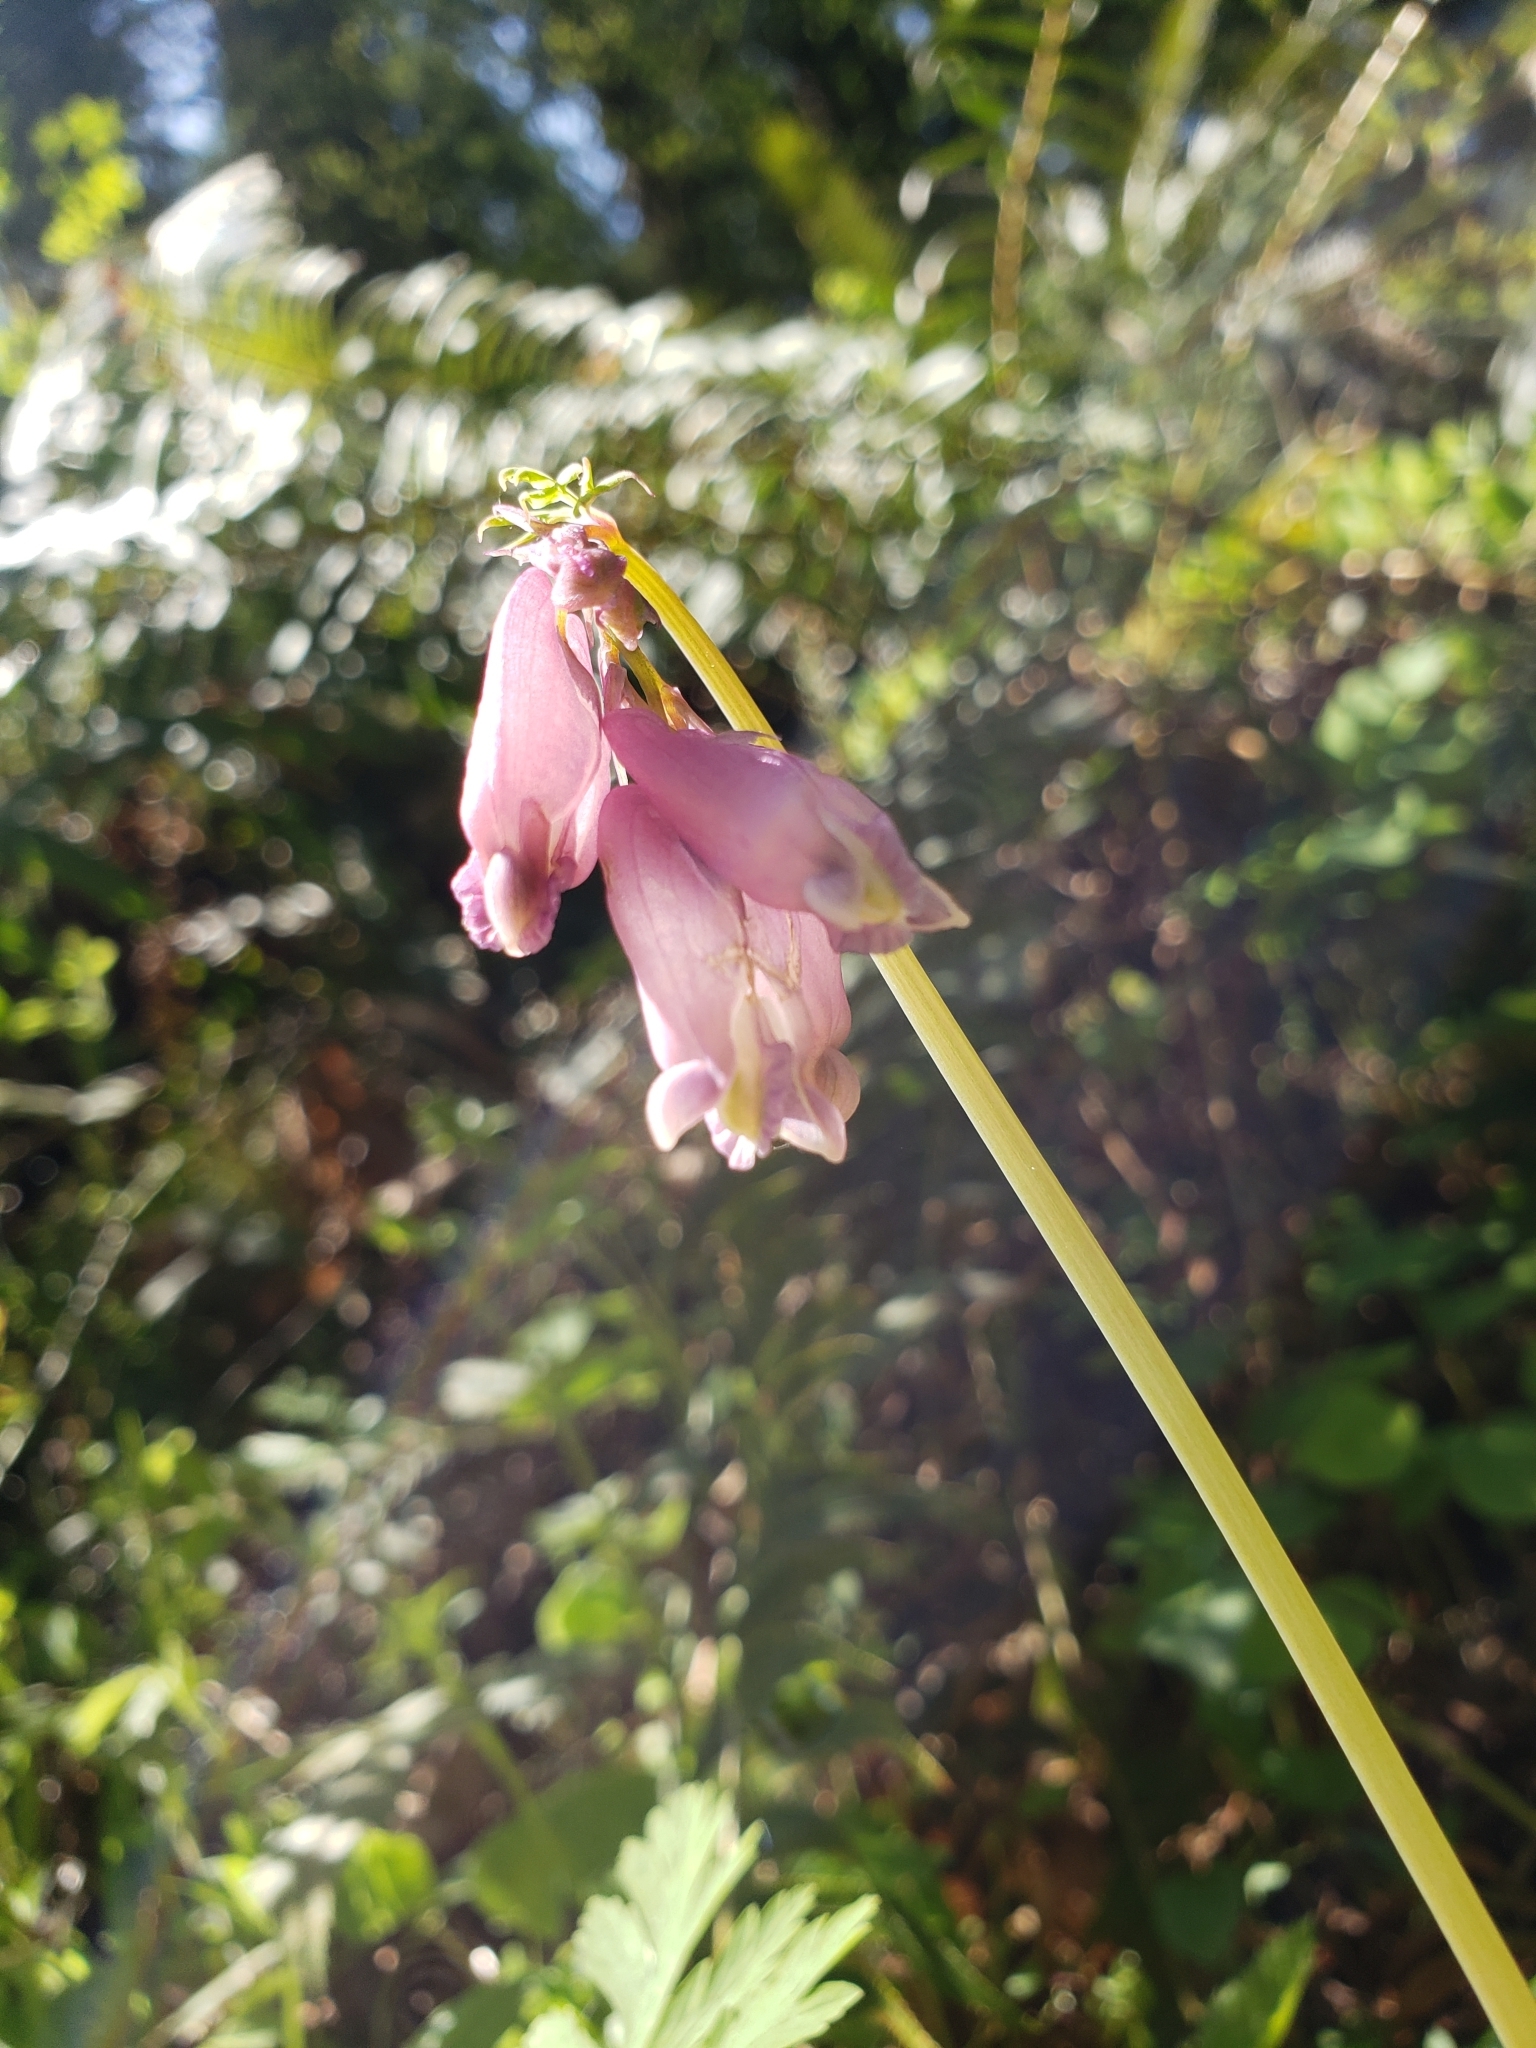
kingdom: Plantae
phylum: Tracheophyta
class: Magnoliopsida
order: Ranunculales
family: Papaveraceae
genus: Dicentra
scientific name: Dicentra formosa
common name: Bleeding-heart
